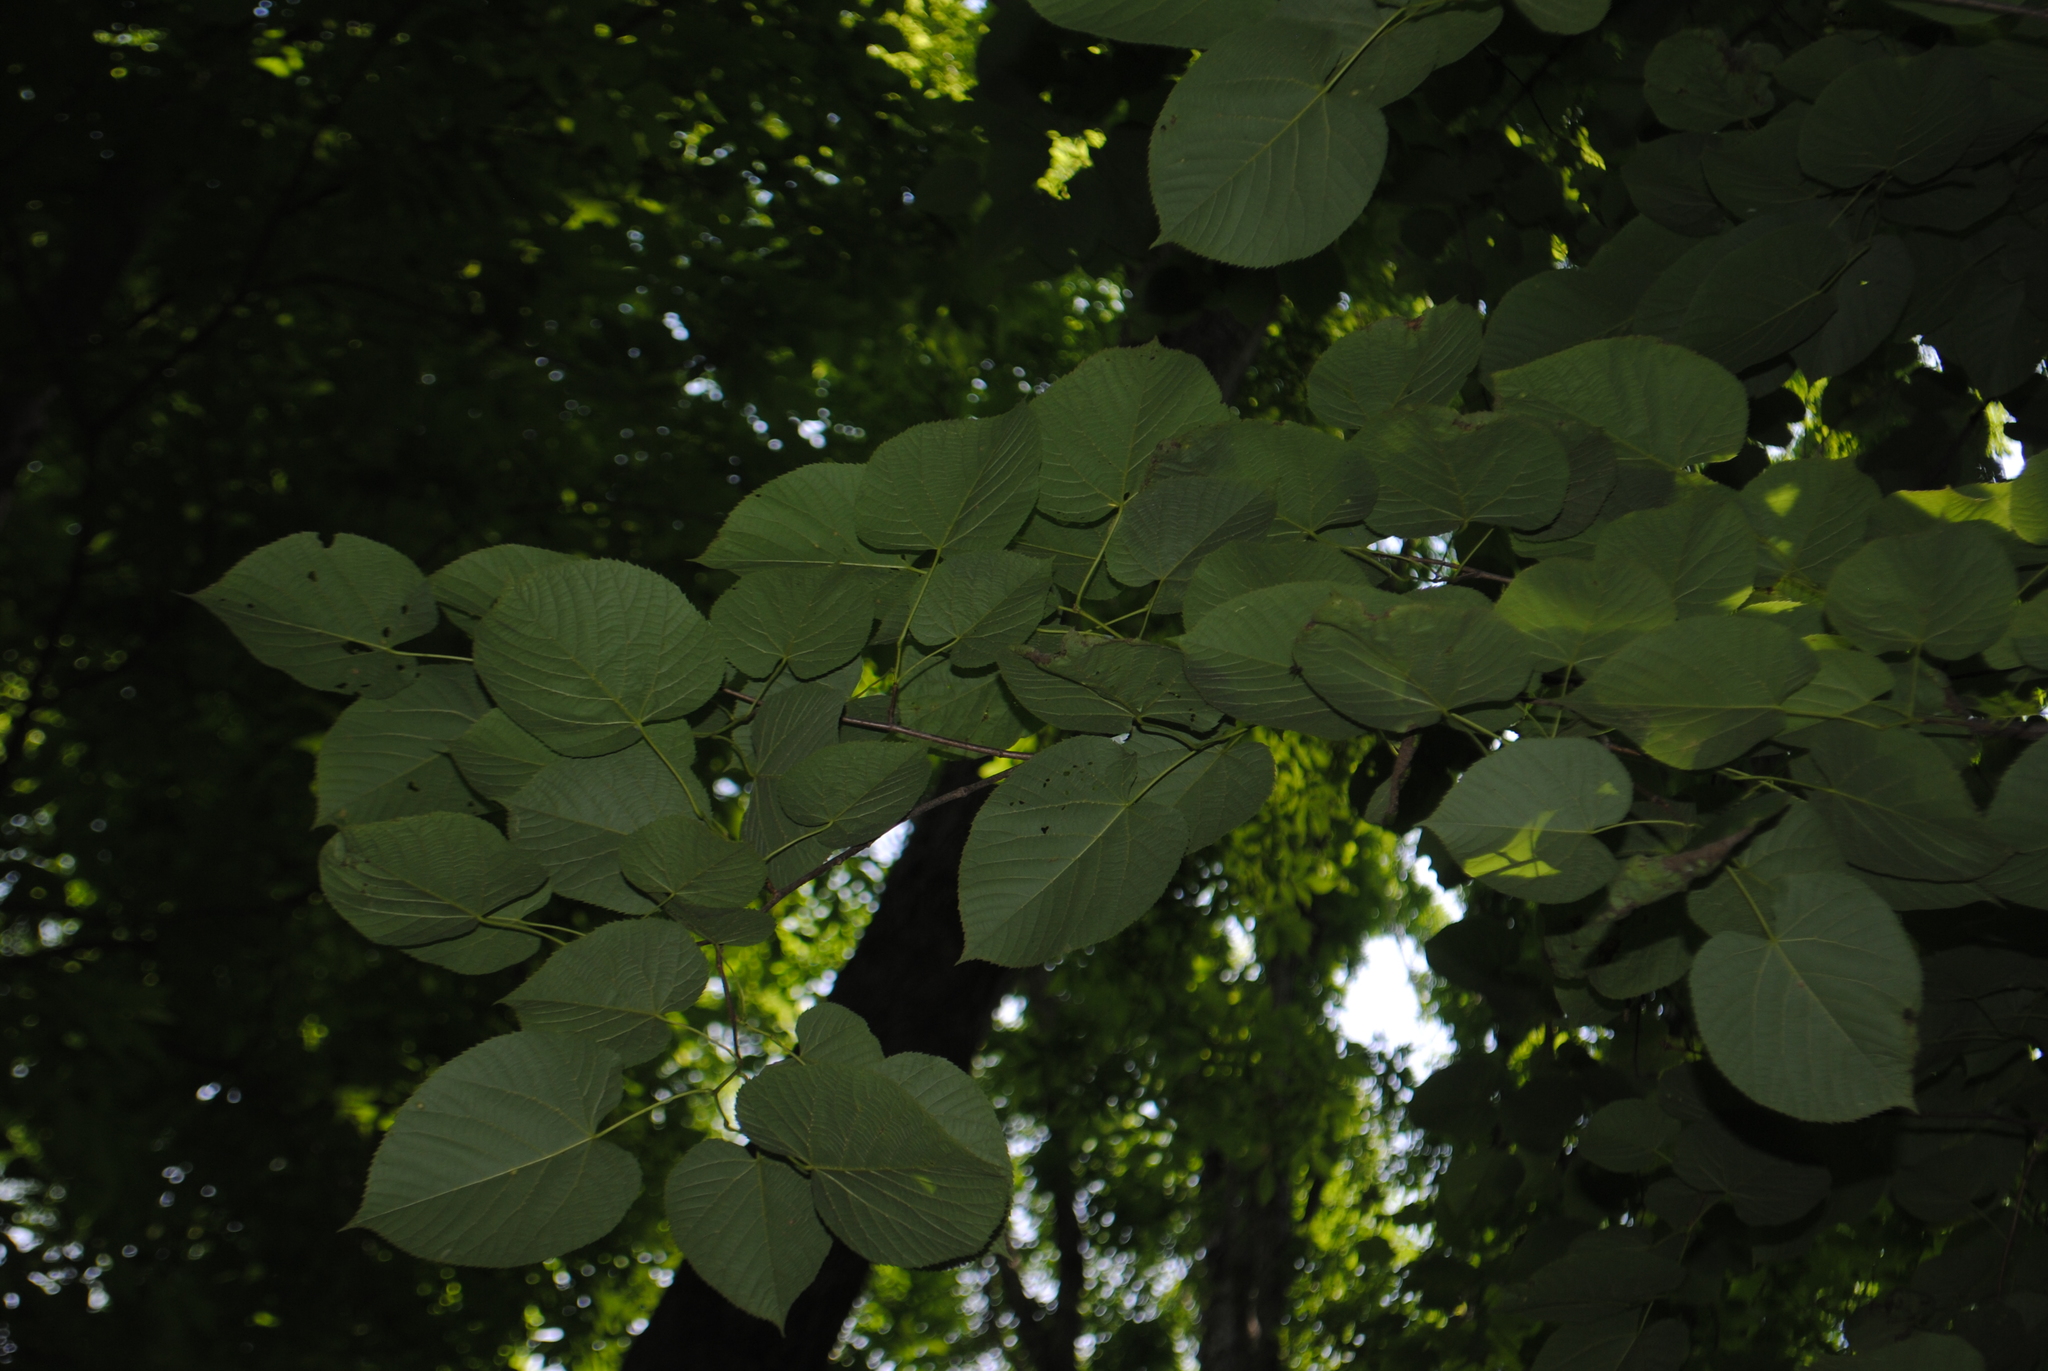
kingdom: Plantae
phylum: Tracheophyta
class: Magnoliopsida
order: Malvales
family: Malvaceae
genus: Tilia
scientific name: Tilia americana
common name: Basswood
